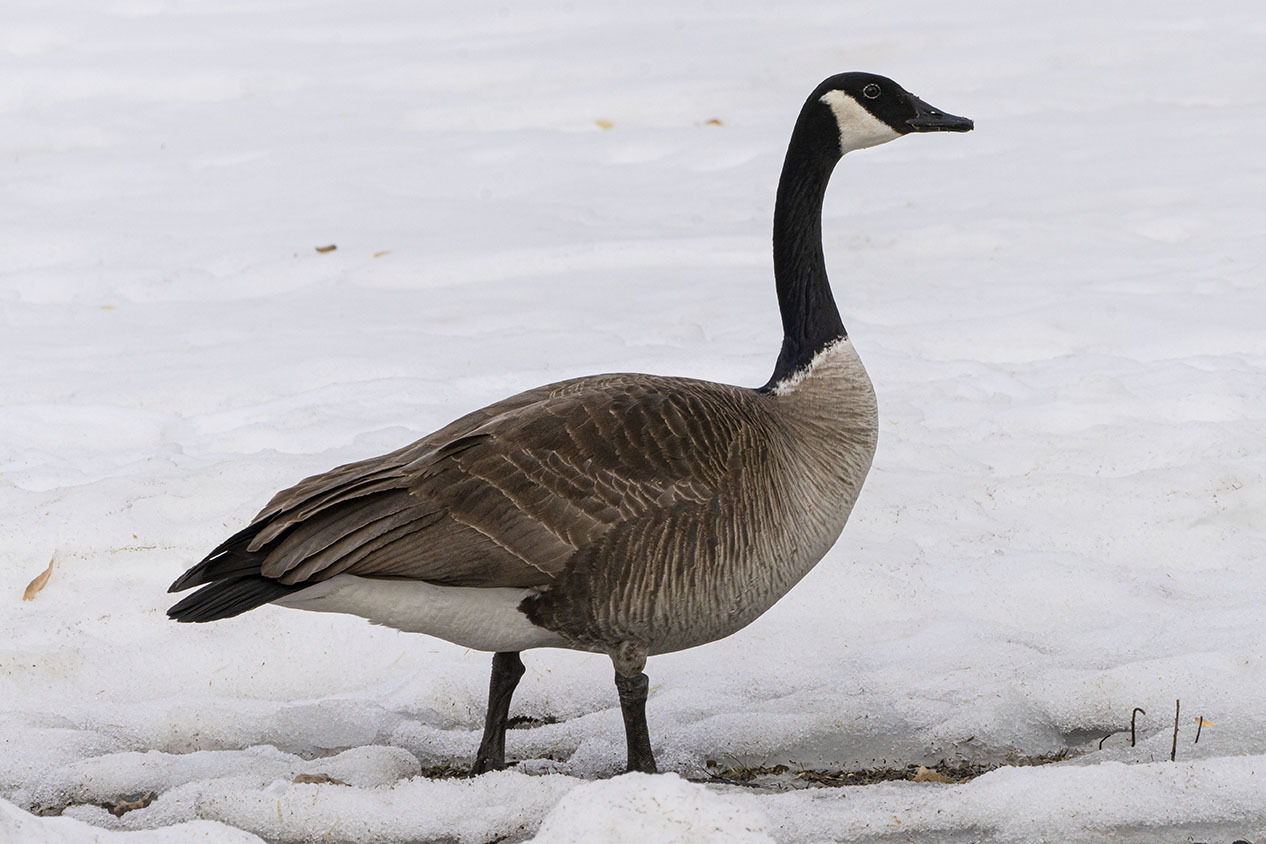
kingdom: Animalia
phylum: Chordata
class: Aves
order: Anseriformes
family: Anatidae
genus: Branta
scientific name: Branta canadensis
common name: Canada goose
